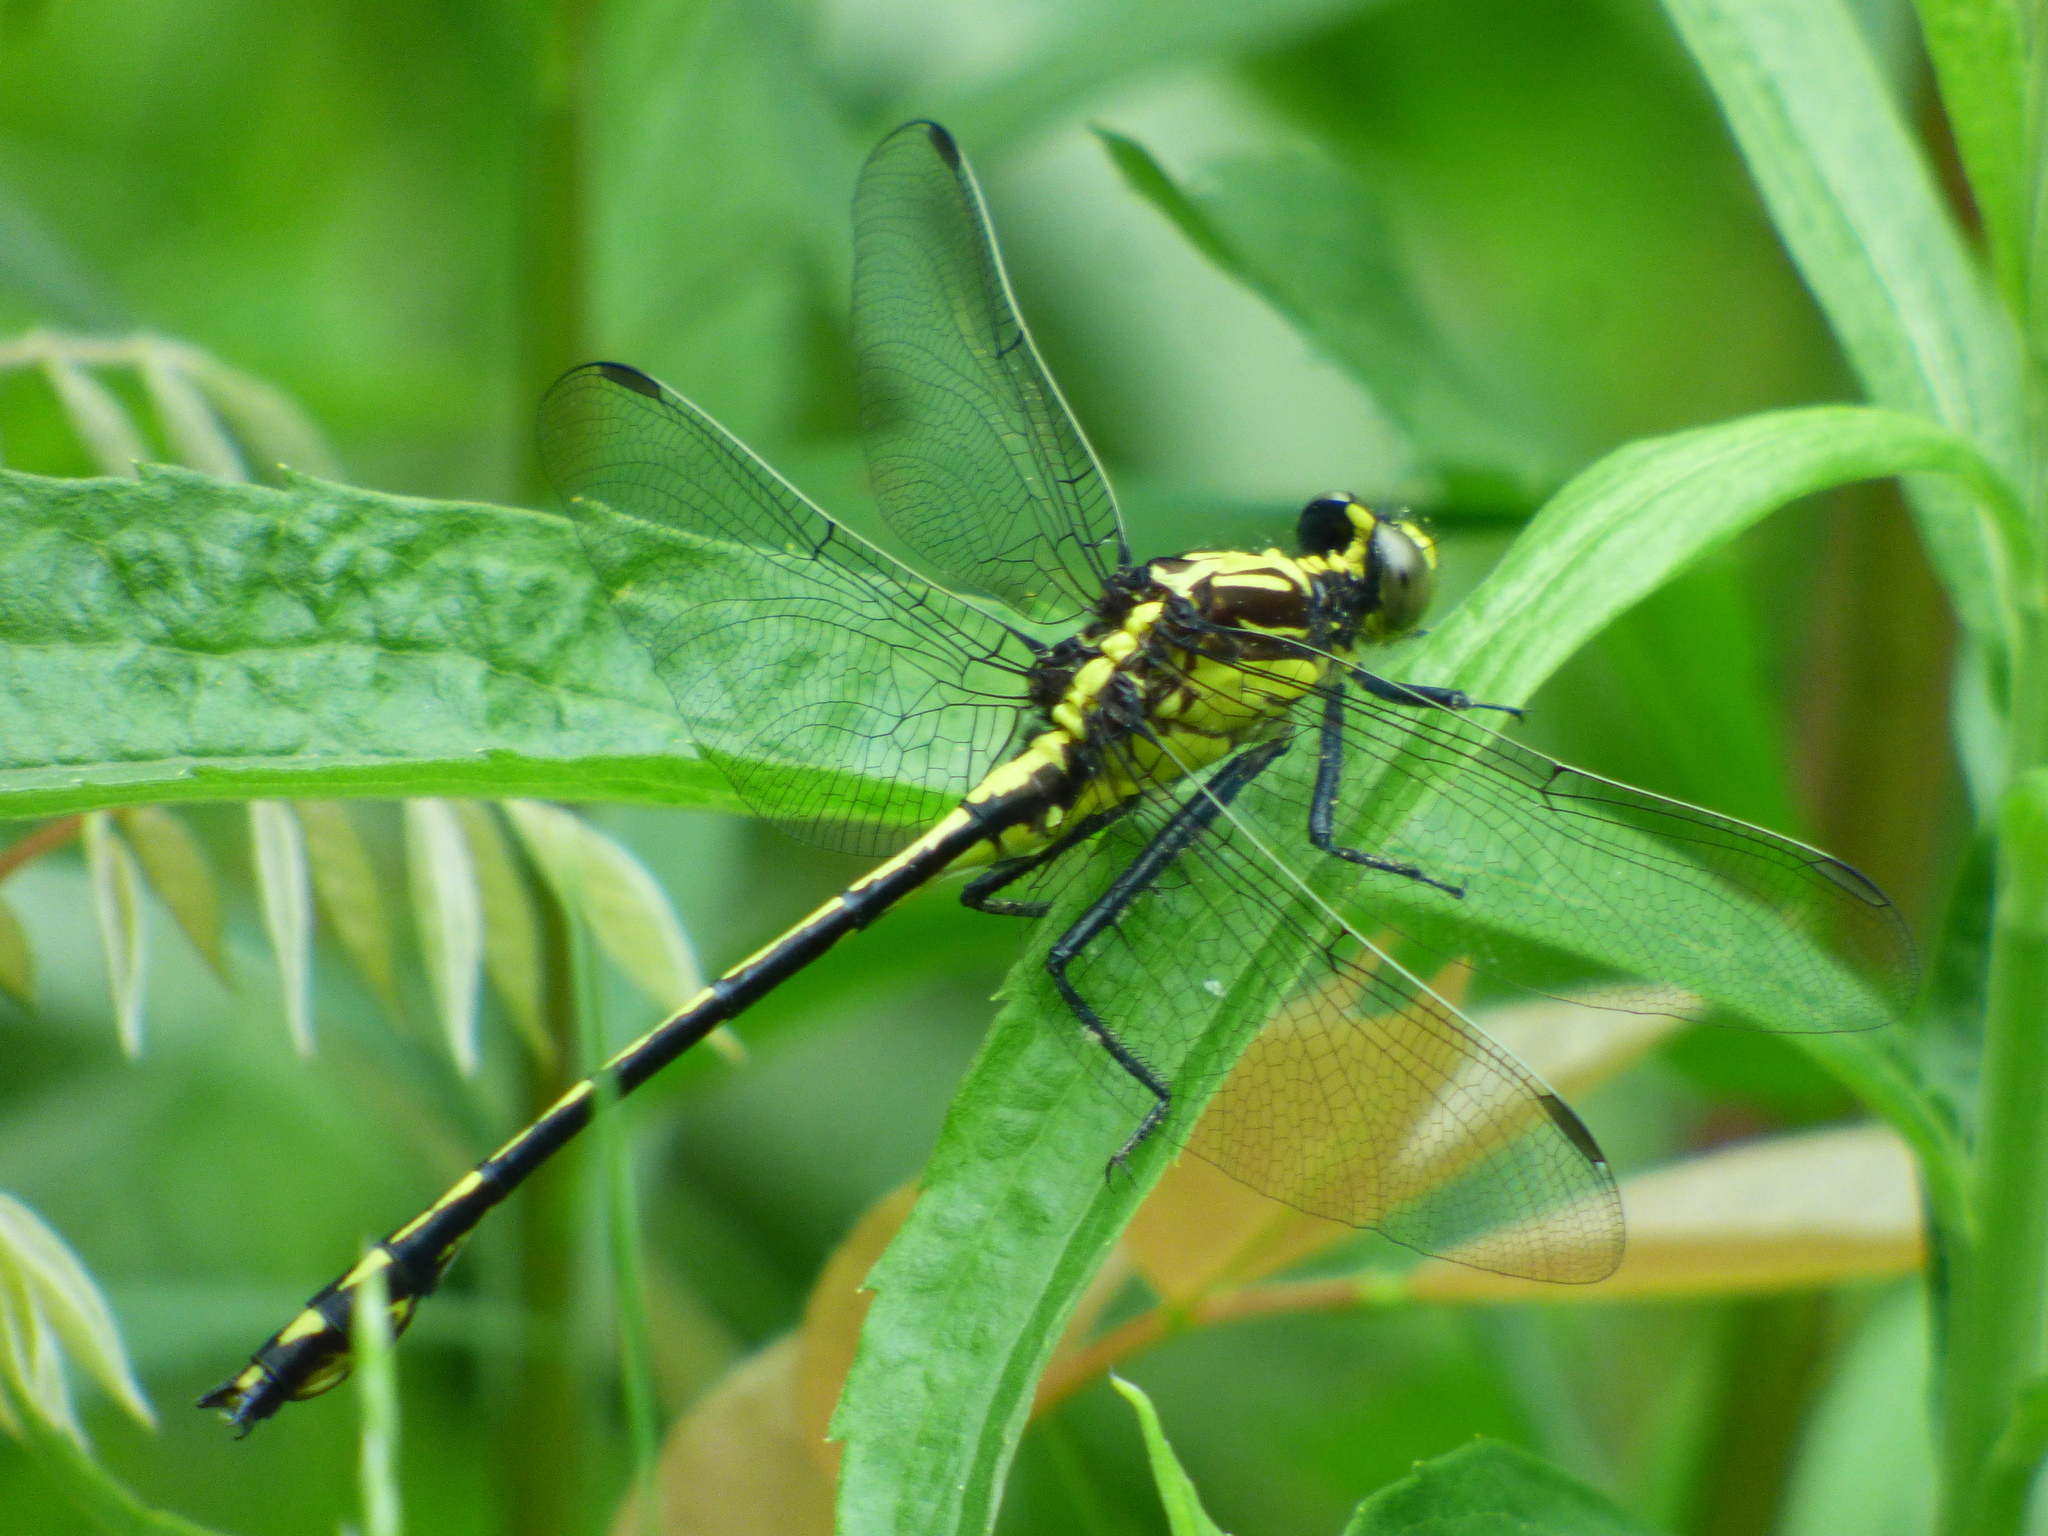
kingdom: Animalia
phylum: Arthropoda
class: Insecta
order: Odonata
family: Gomphidae
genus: Dromogomphus
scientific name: Dromogomphus spinosus
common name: Black-shouldered spinyleg
